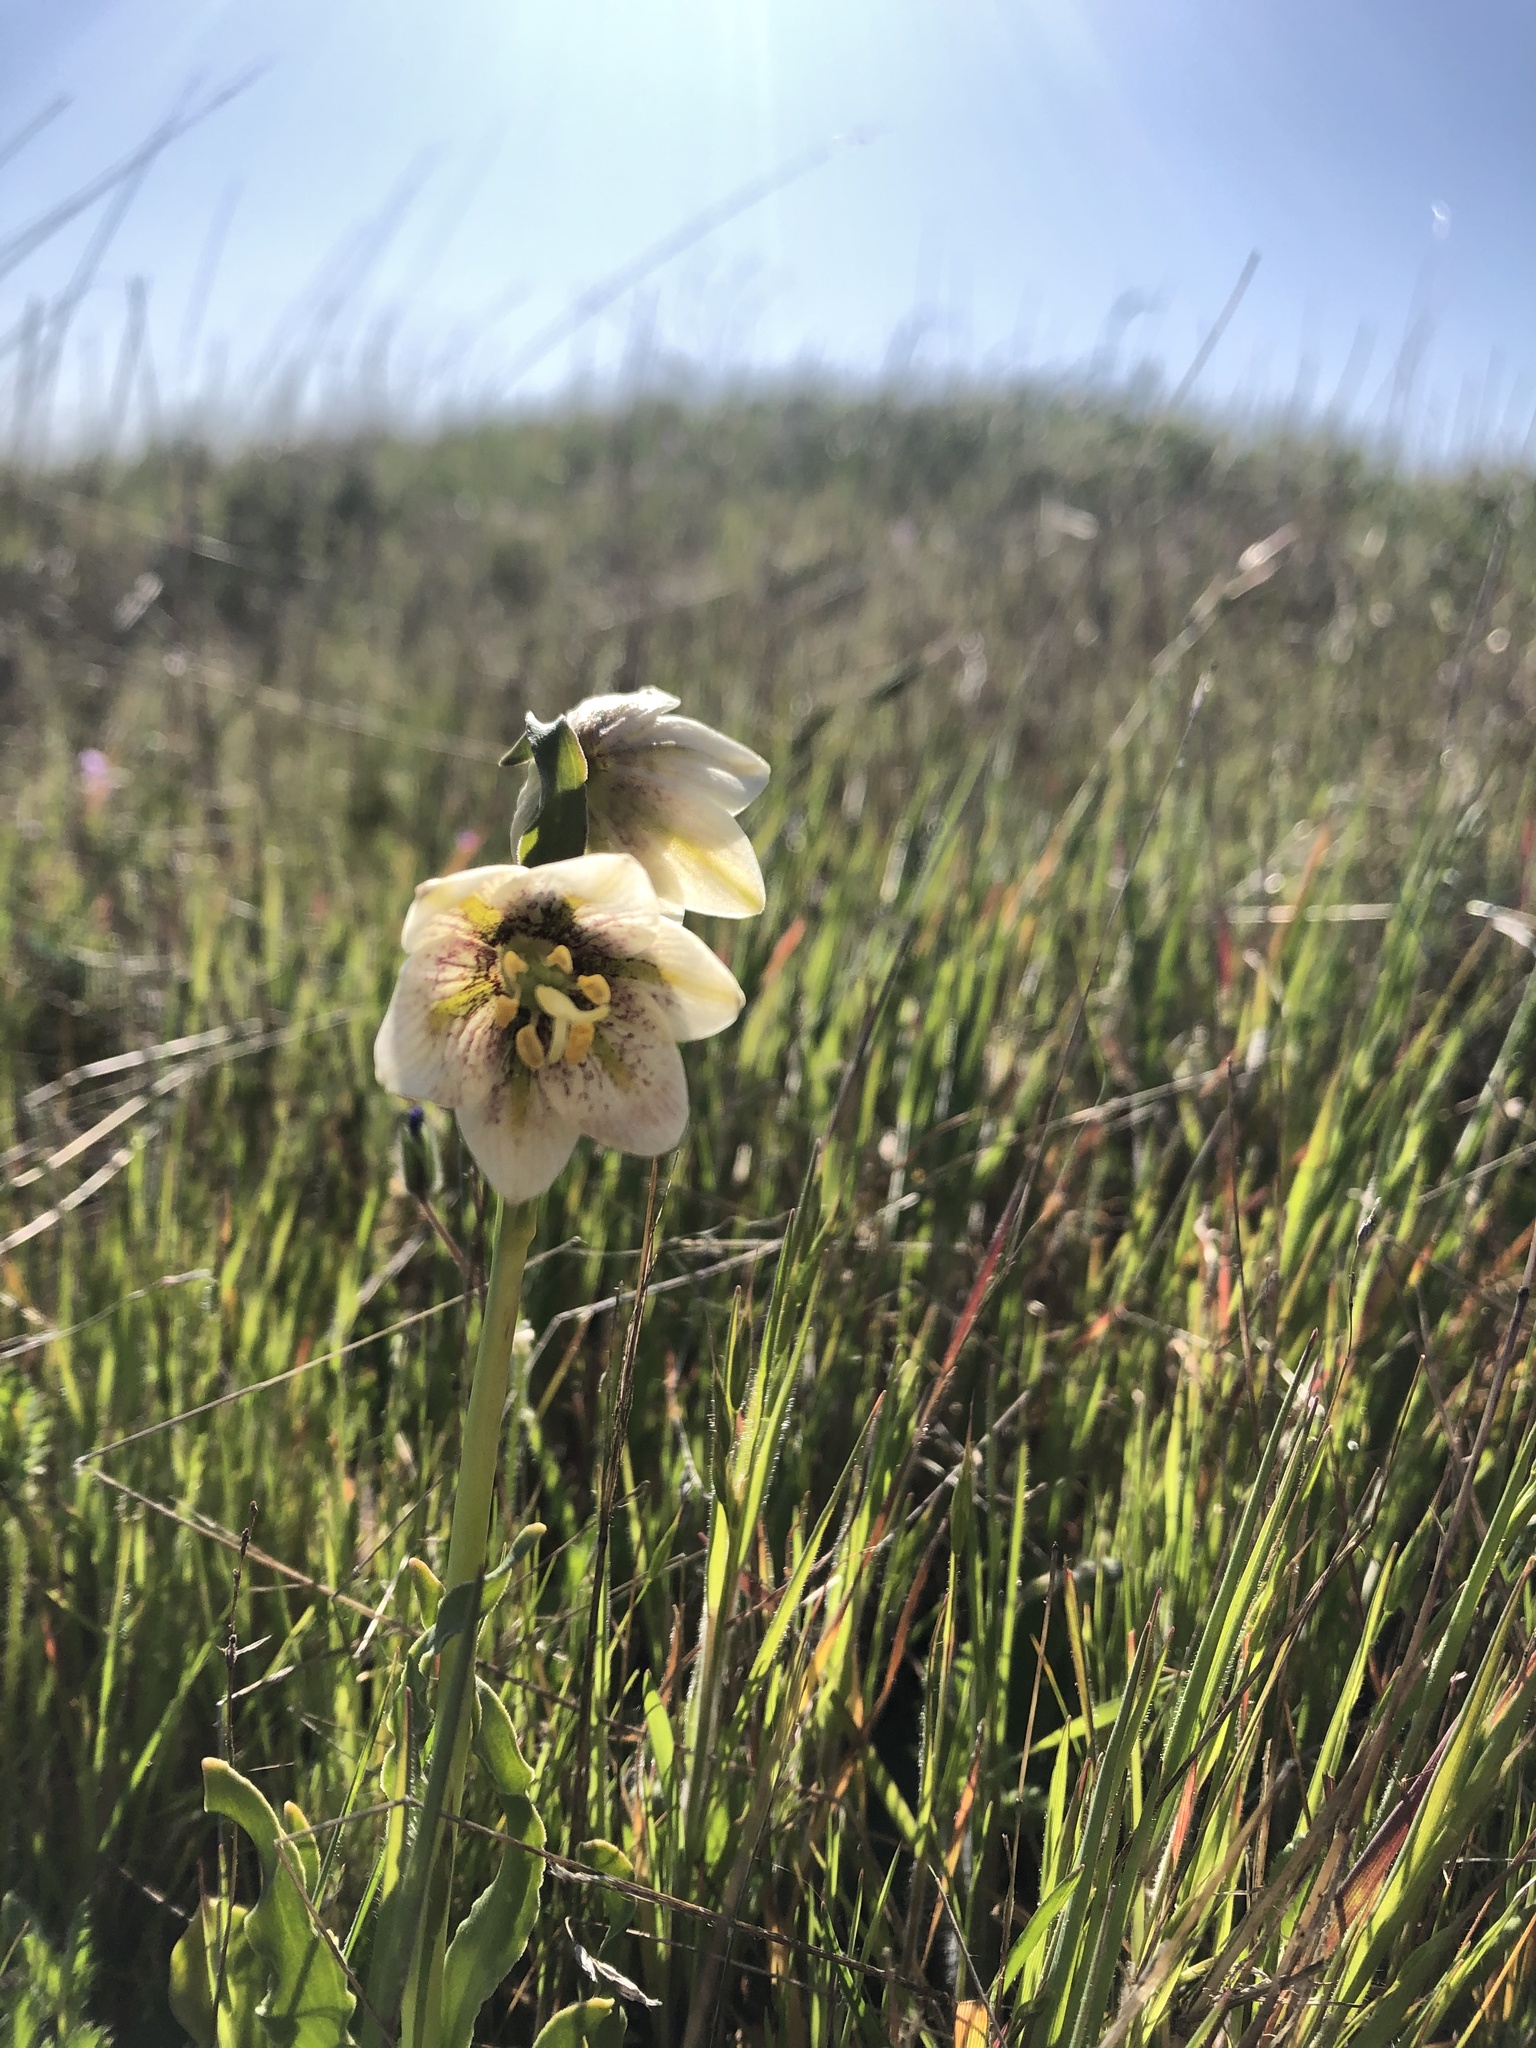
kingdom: Plantae
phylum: Tracheophyta
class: Liliopsida
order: Liliales
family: Liliaceae
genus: Fritillaria
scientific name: Fritillaria liliacea
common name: Fragrant fritillary
